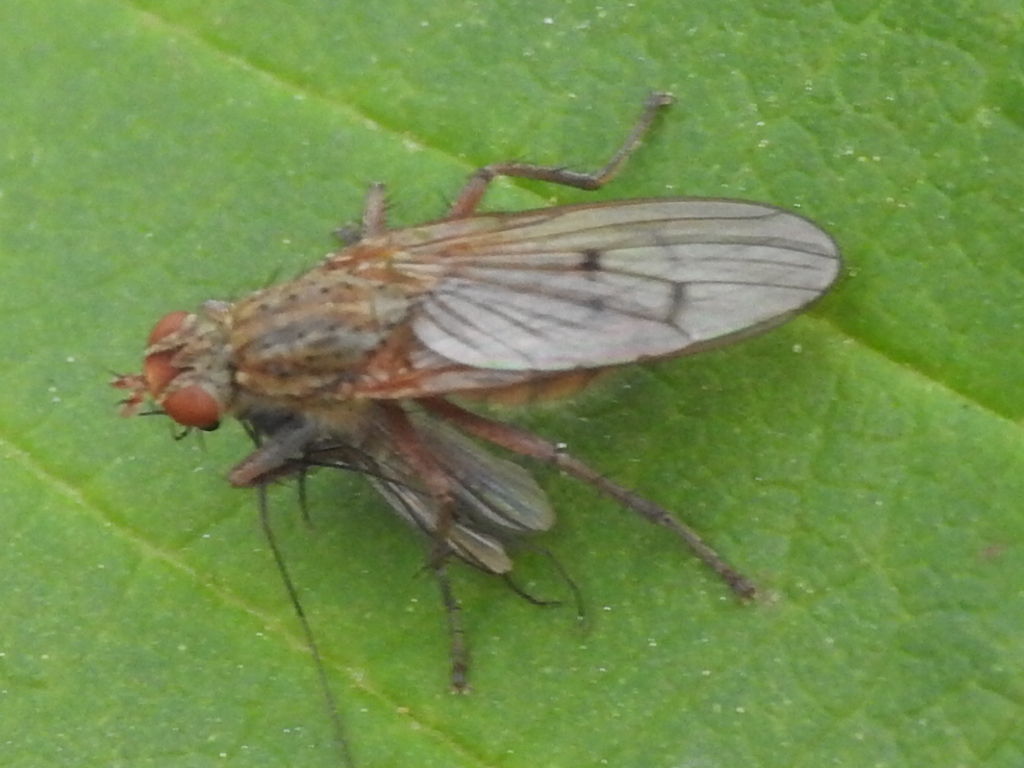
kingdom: Animalia
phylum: Arthropoda
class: Insecta
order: Diptera
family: Scathophagidae
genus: Scathophaga
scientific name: Scathophaga stercoraria
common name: Yellow dung fly
